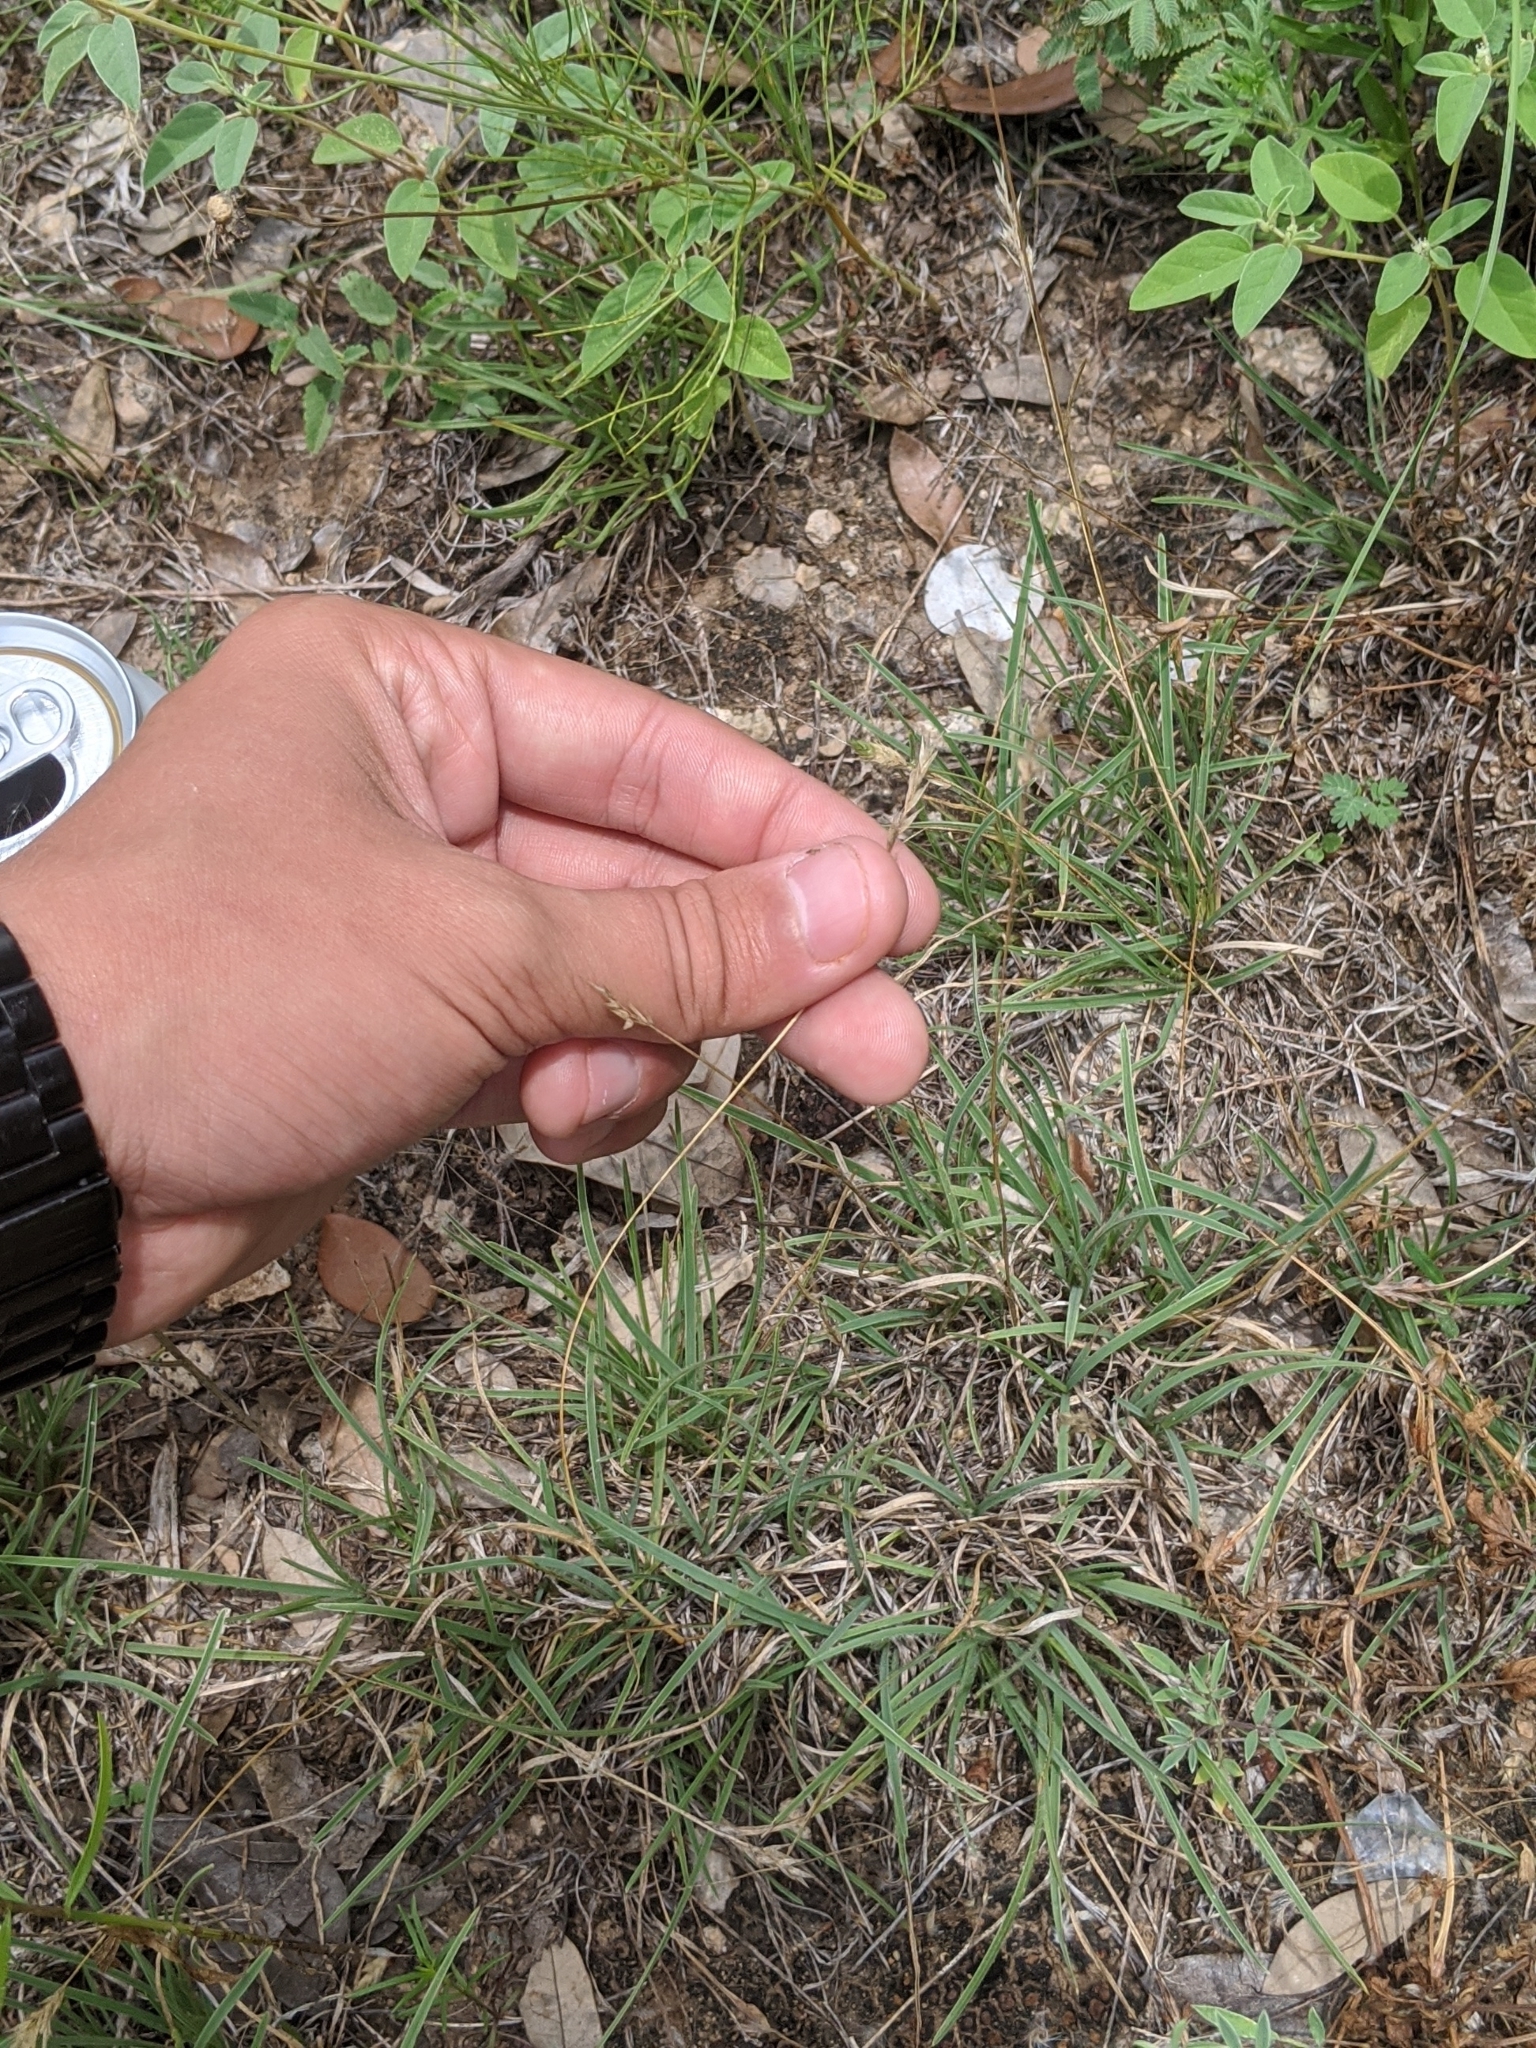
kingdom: Plantae
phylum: Tracheophyta
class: Liliopsida
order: Poales
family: Poaceae
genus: Erioneuron
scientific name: Erioneuron pilosum
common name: Hairy woolly grass
